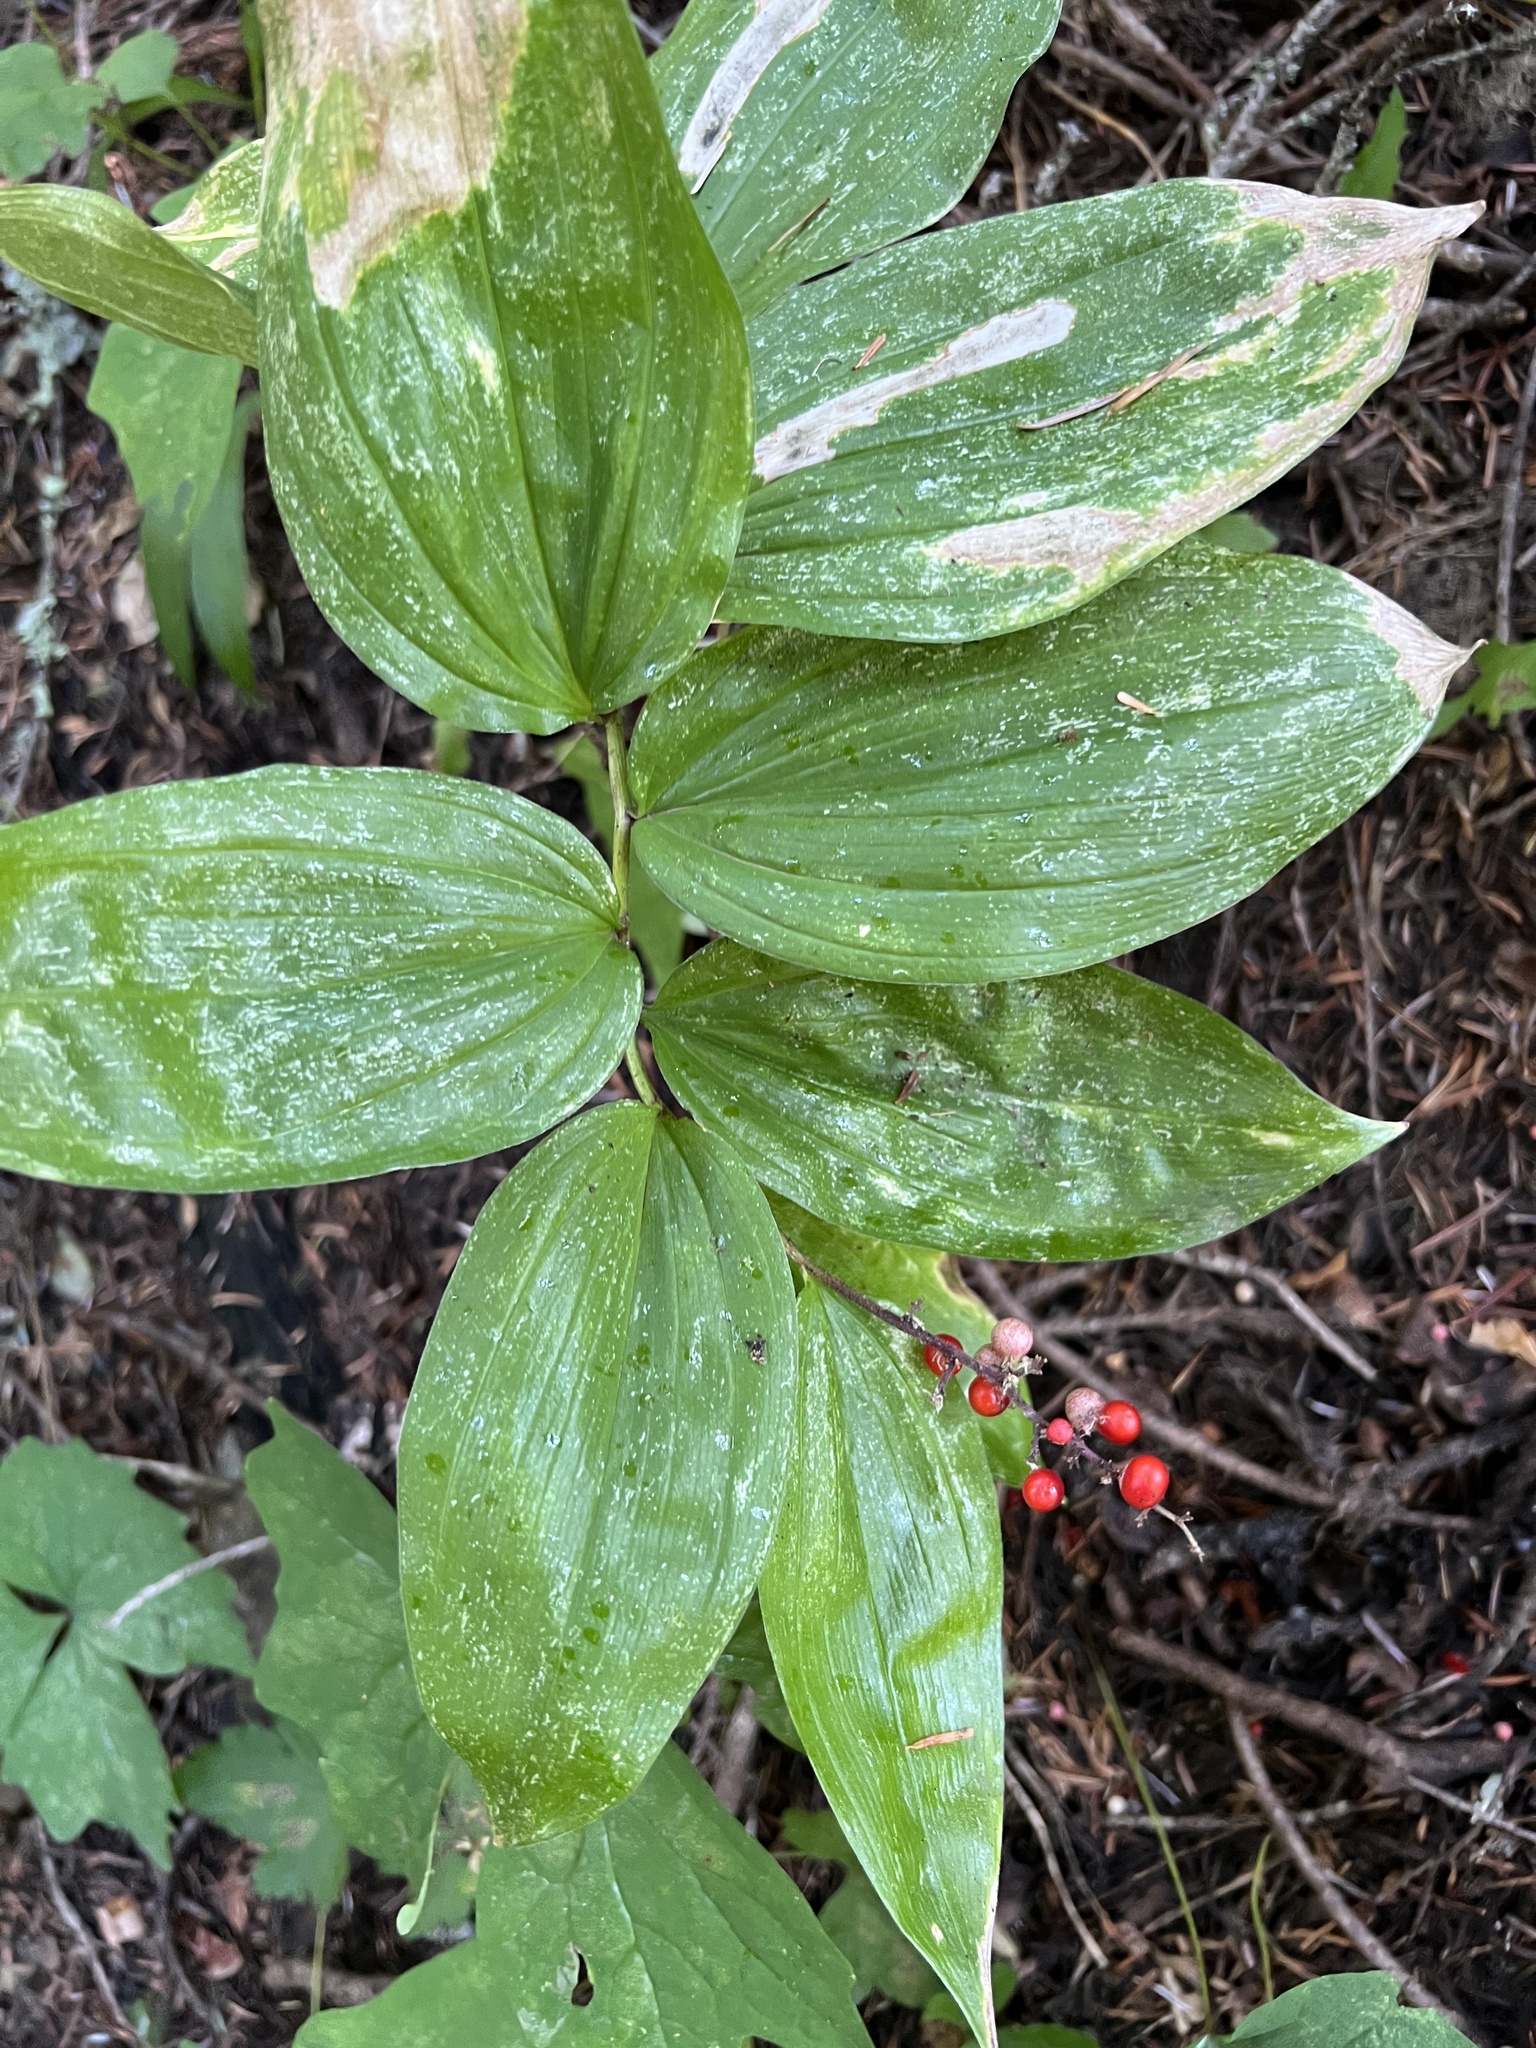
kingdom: Plantae
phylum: Tracheophyta
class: Liliopsida
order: Asparagales
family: Asparagaceae
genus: Maianthemum
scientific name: Maianthemum racemosum
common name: False spikenard
